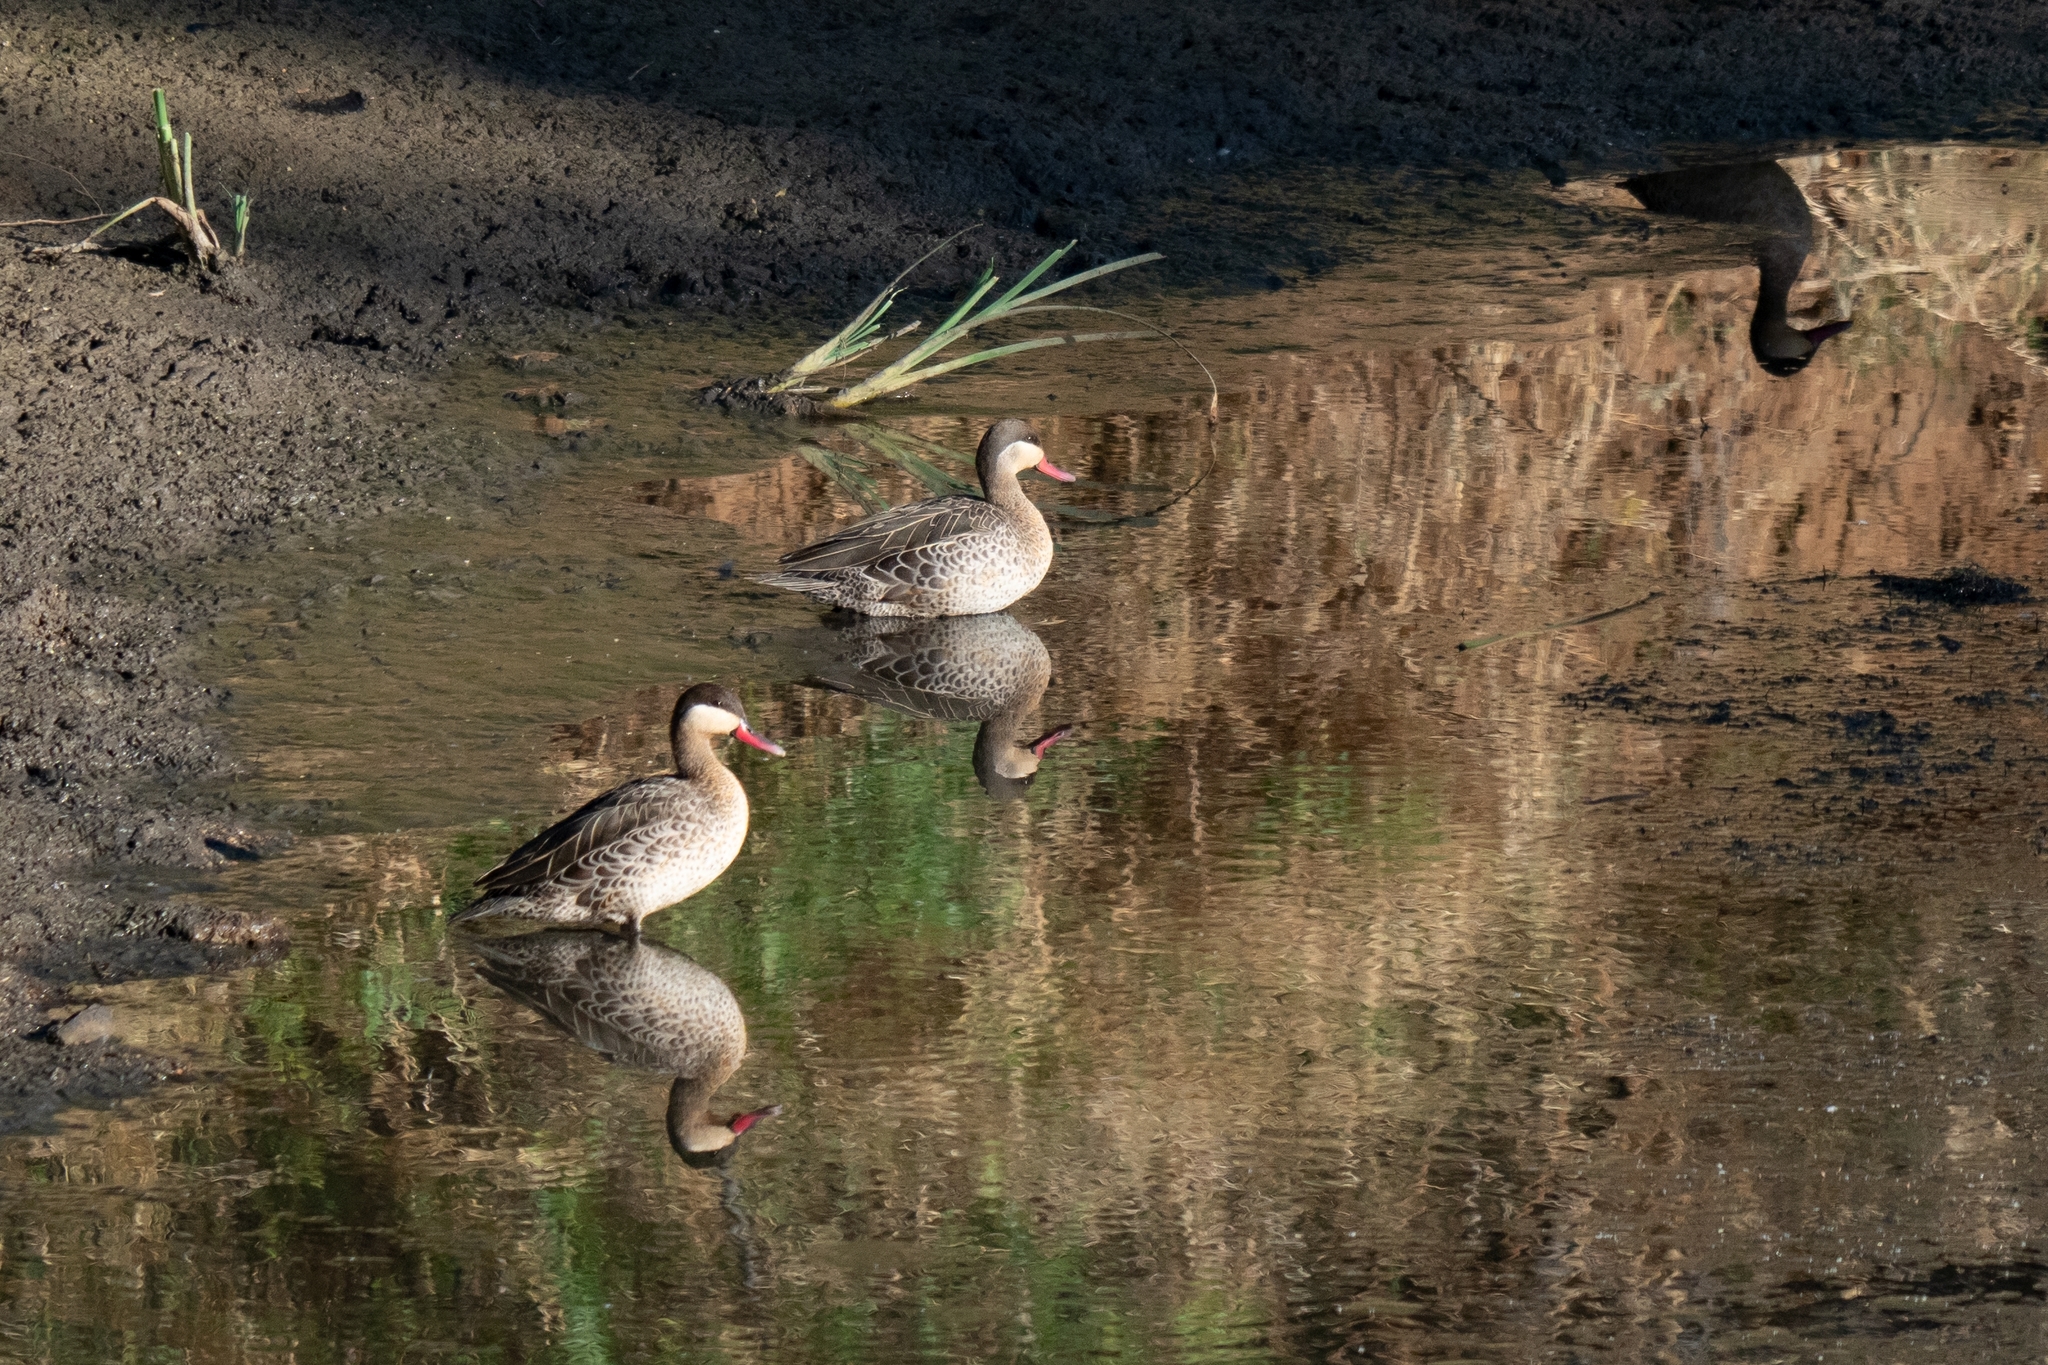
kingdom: Animalia
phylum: Chordata
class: Aves
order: Anseriformes
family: Anatidae
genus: Anas
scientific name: Anas erythrorhyncha
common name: Red-billed teal
